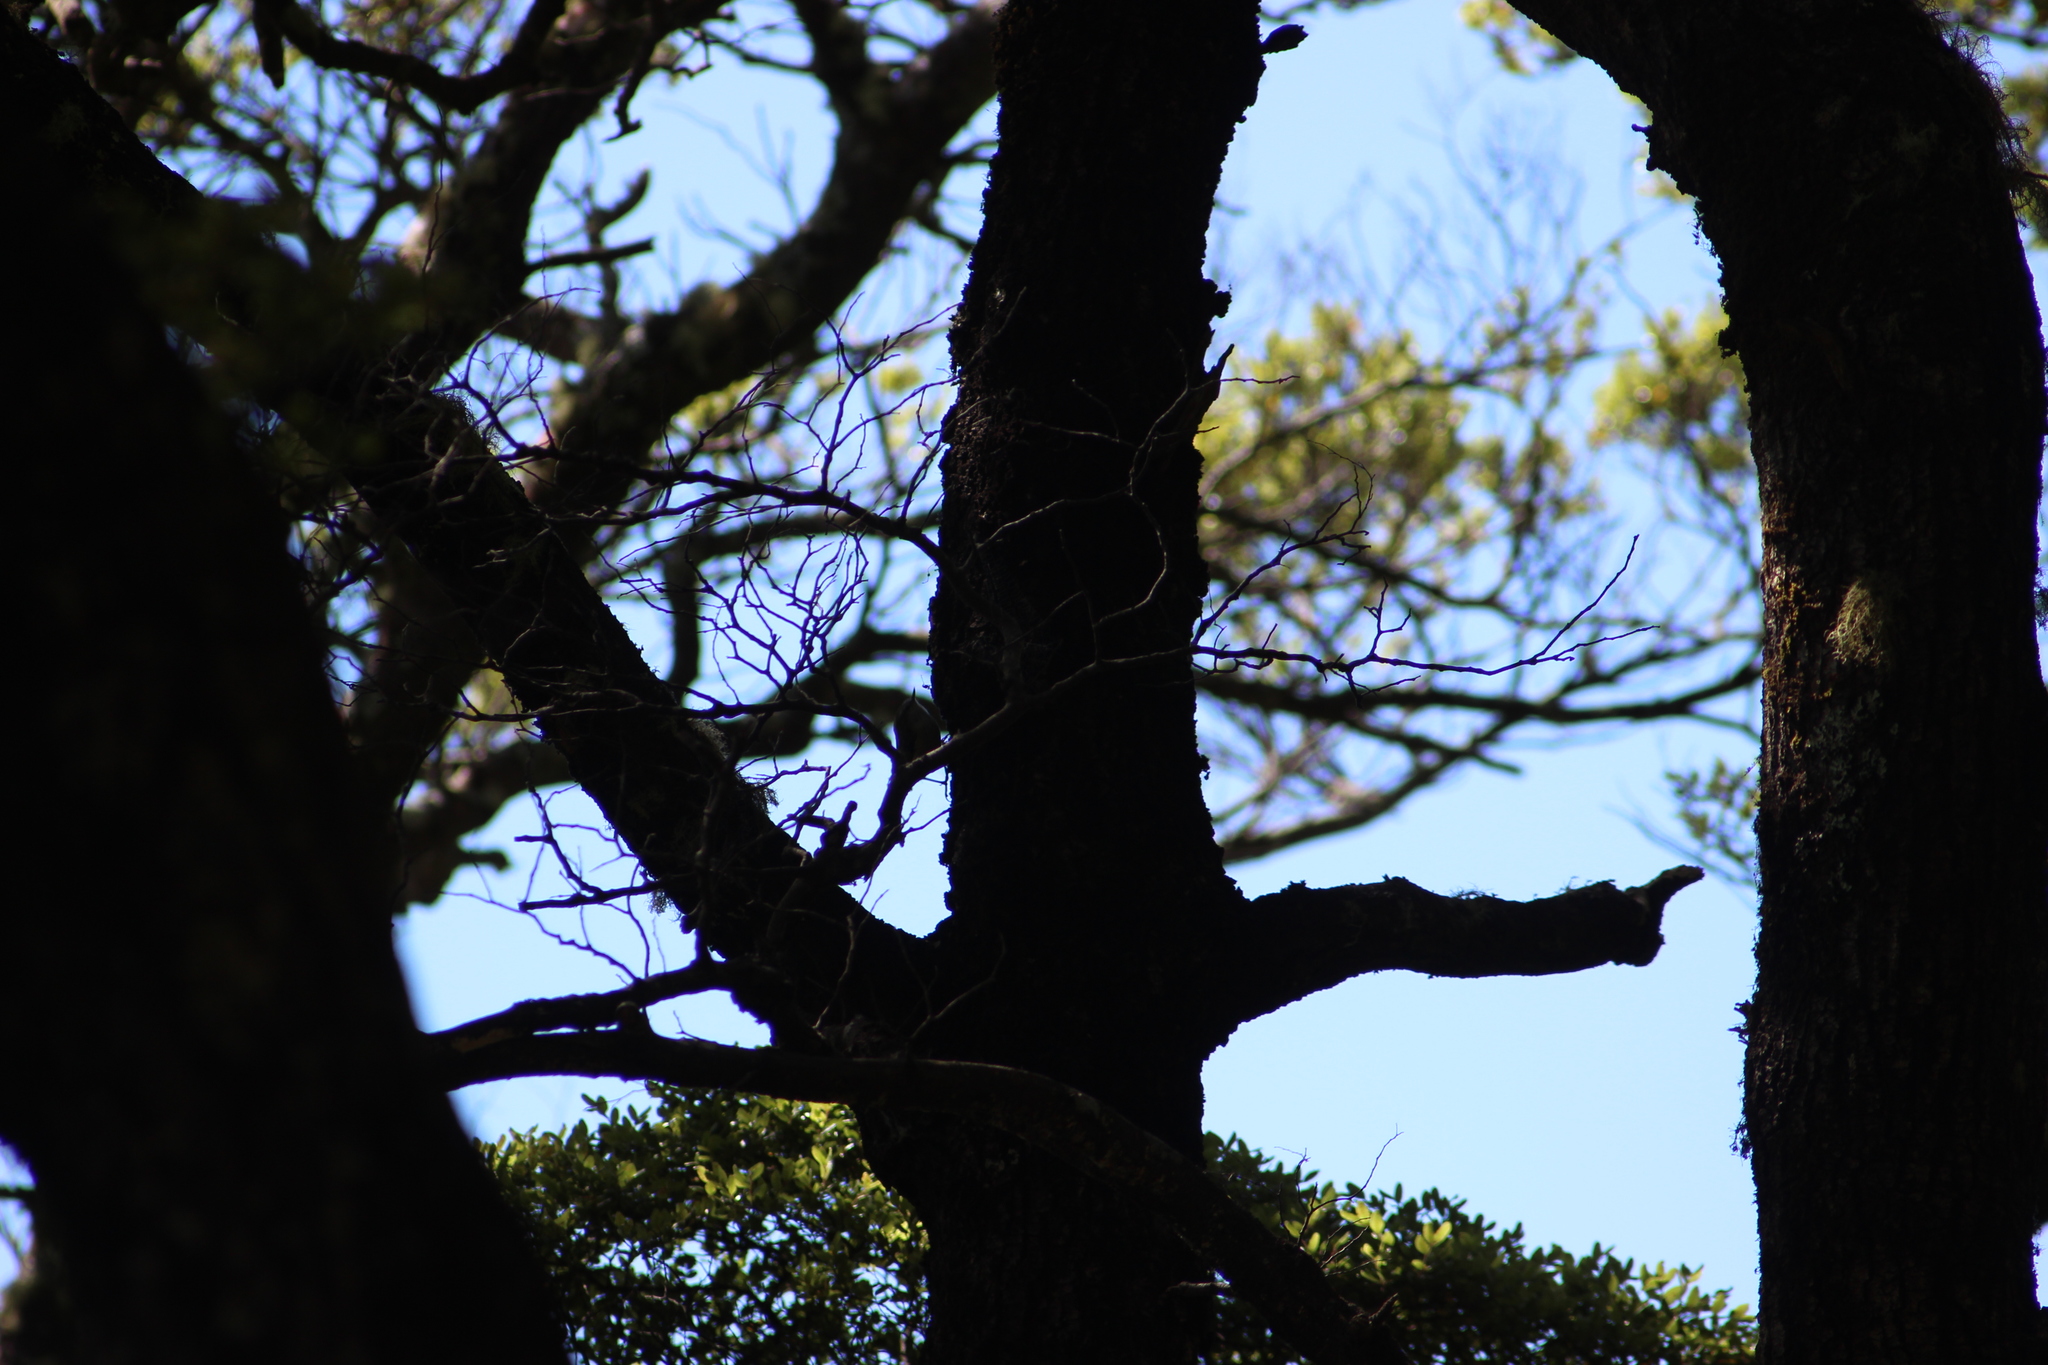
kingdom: Animalia
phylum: Chordata
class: Aves
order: Passeriformes
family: Acanthisittidae
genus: Acanthisitta
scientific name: Acanthisitta chloris
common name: Rifleman
